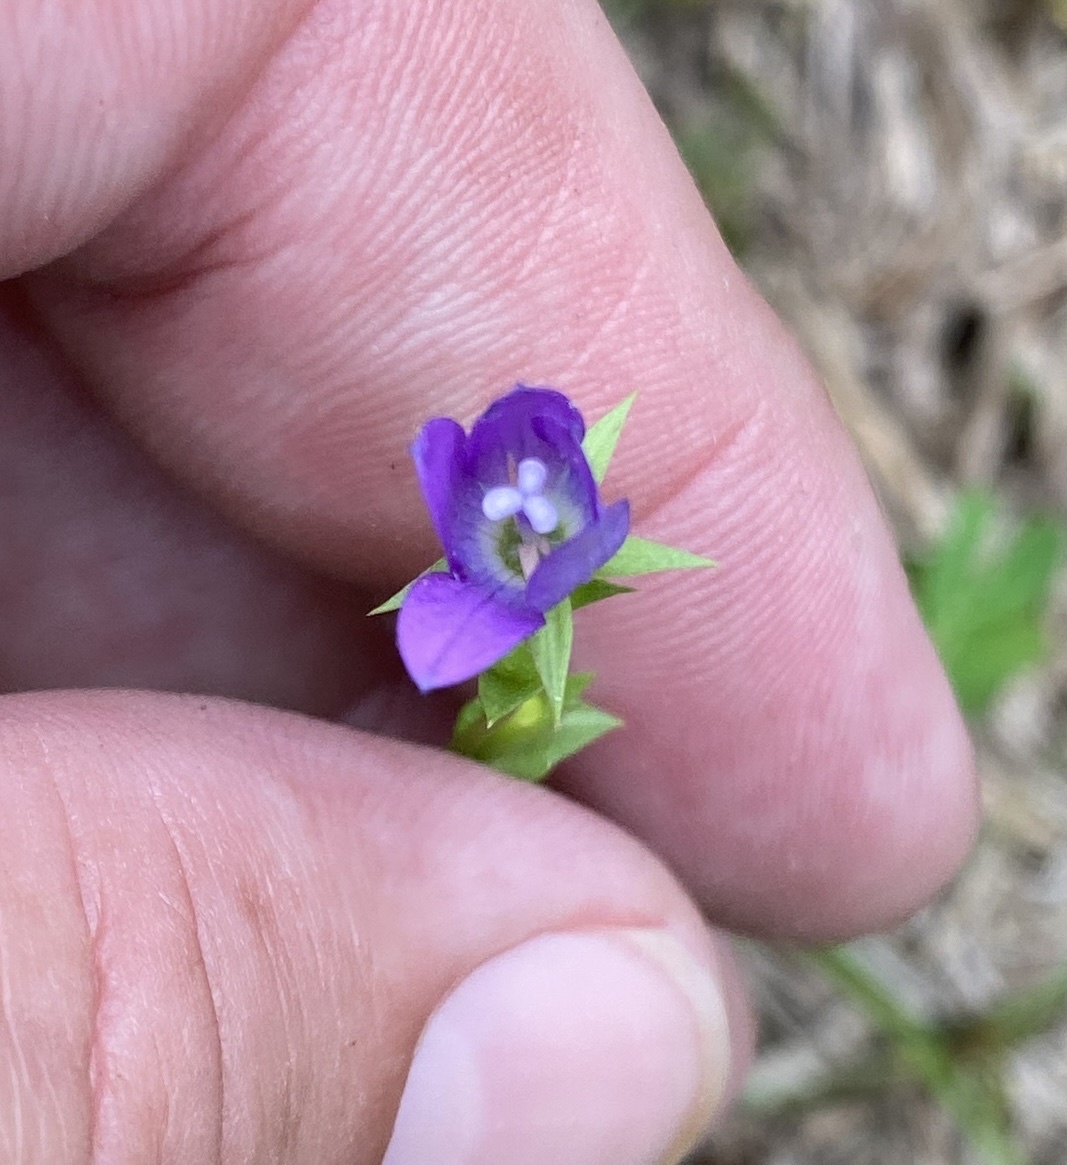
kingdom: Plantae
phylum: Tracheophyta
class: Magnoliopsida
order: Asterales
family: Campanulaceae
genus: Triodanis
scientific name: Triodanis biflora
